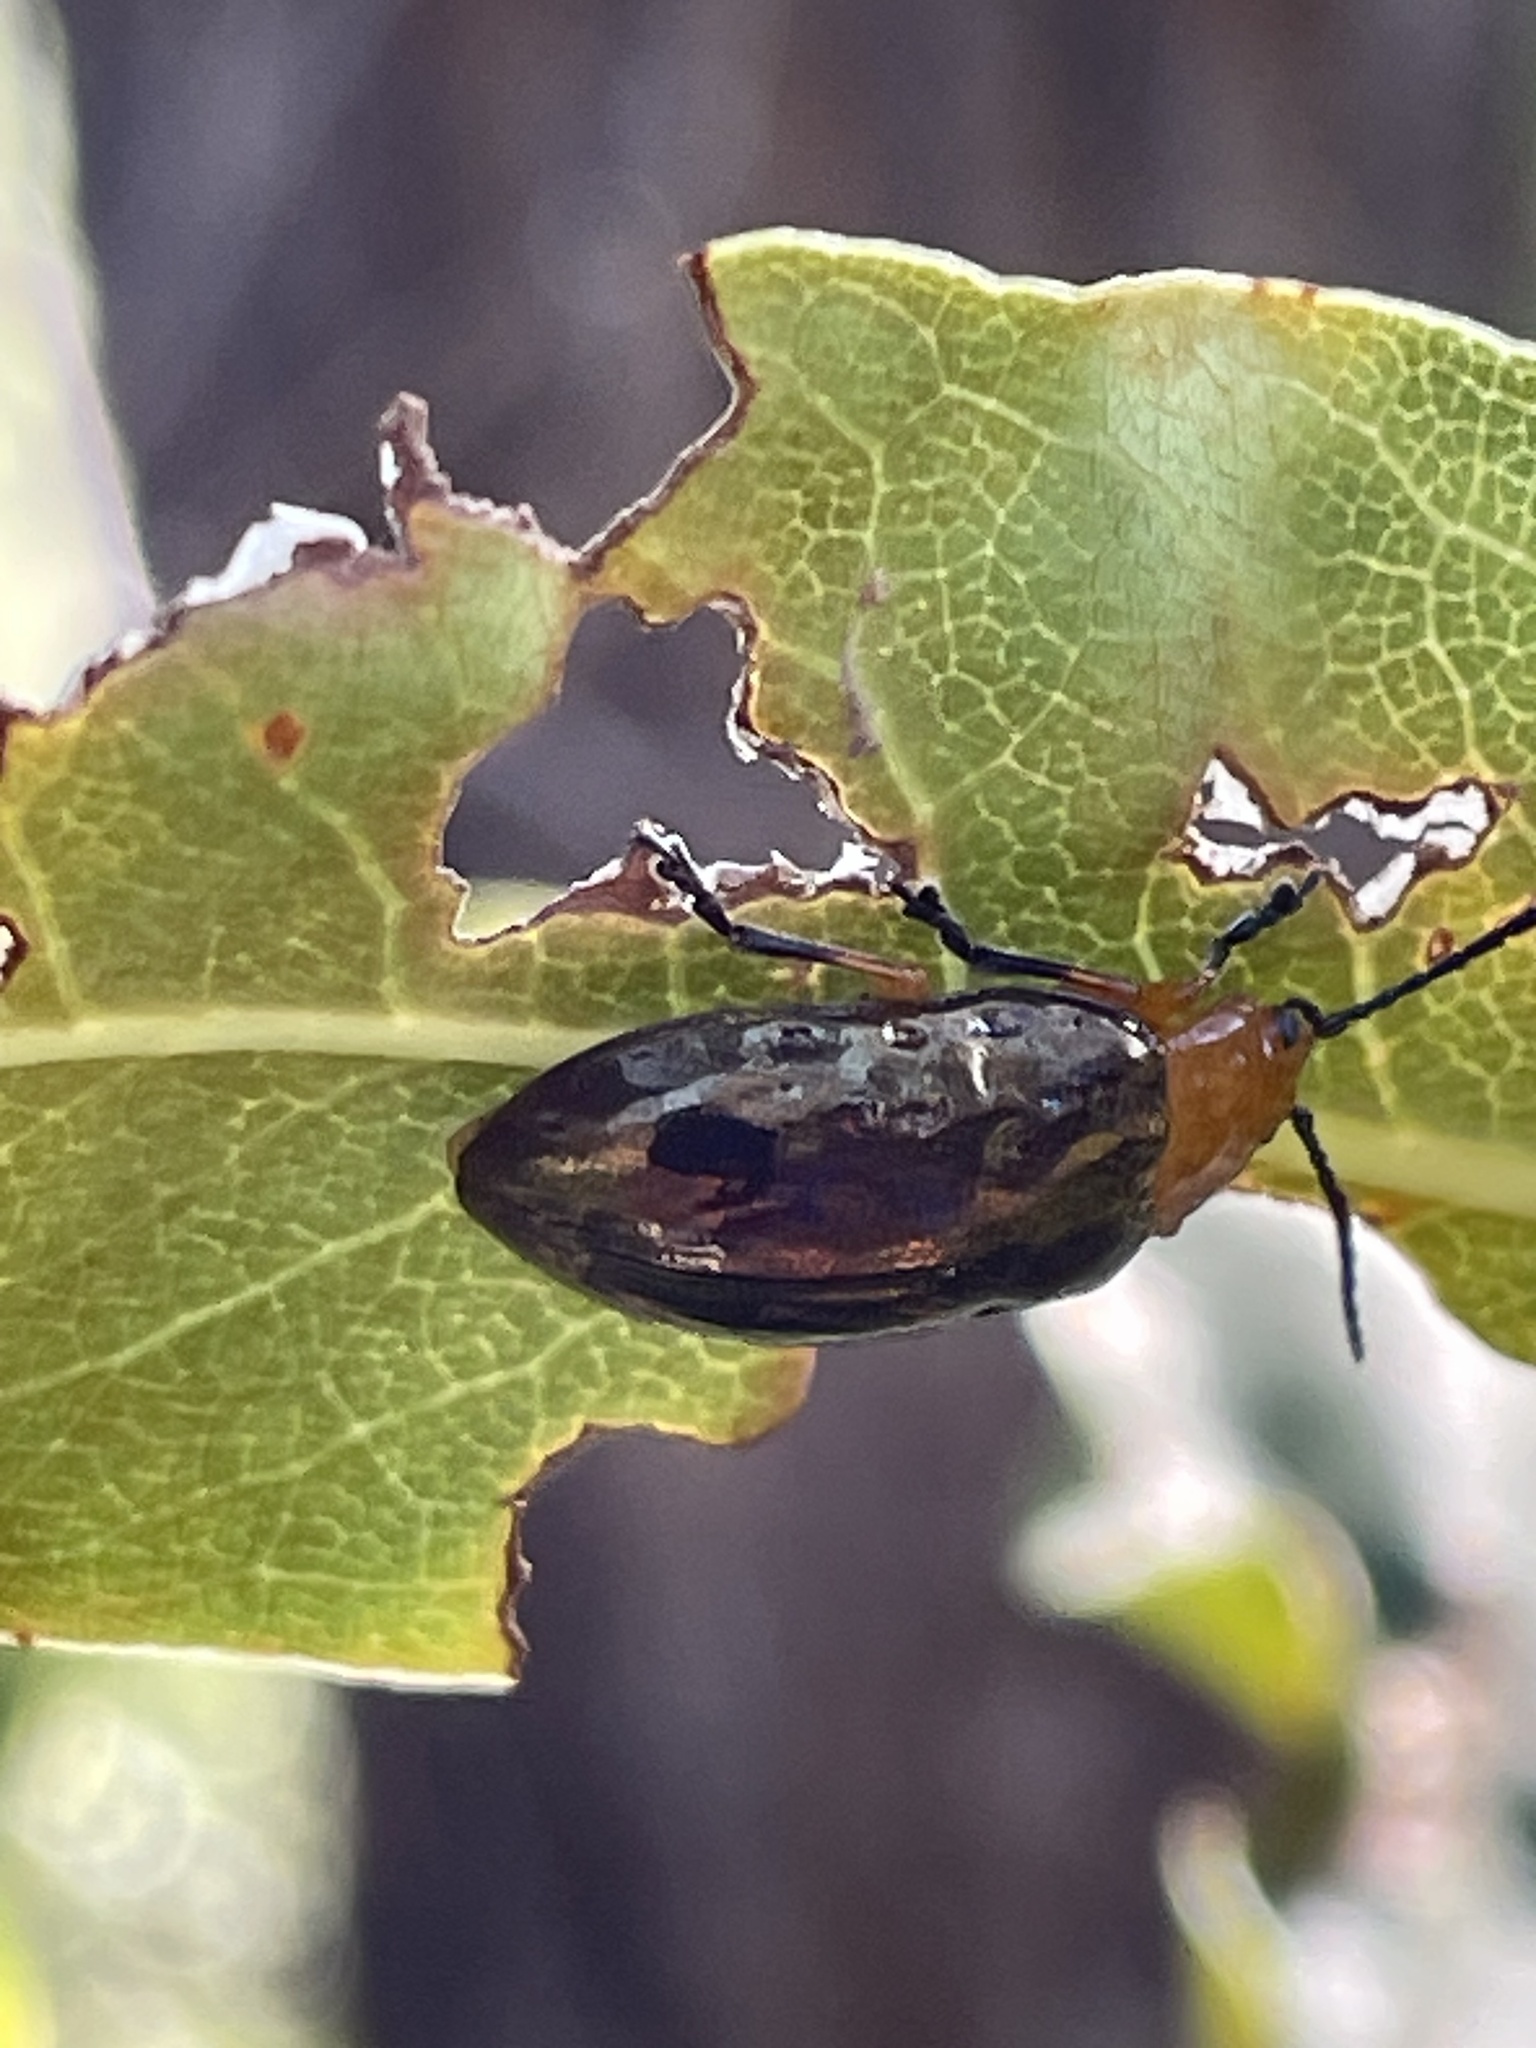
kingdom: Animalia
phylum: Arthropoda
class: Insecta
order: Coleoptera
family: Chrysomelidae
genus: Lamprolina
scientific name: Lamprolina
